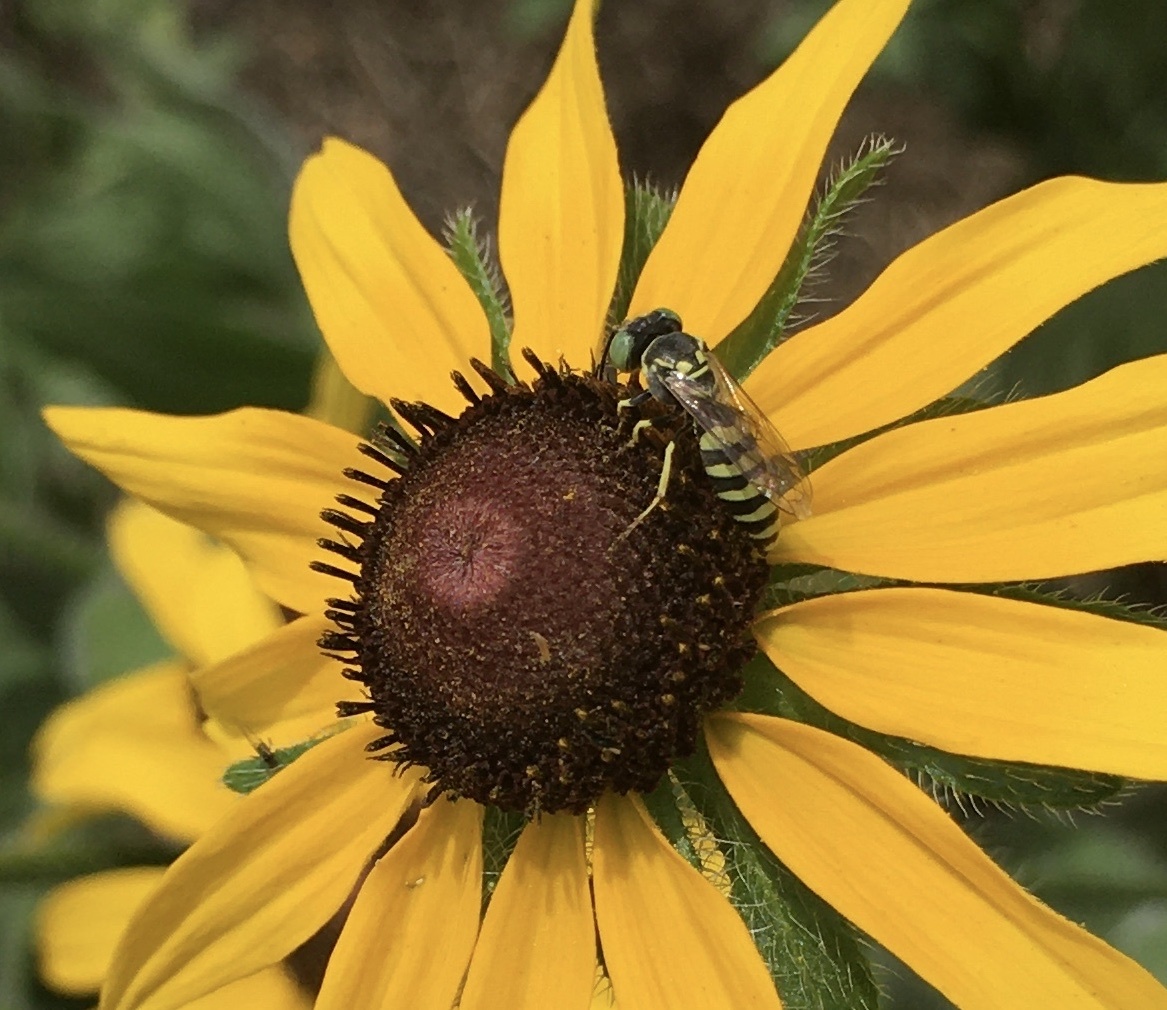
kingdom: Animalia
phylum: Arthropoda
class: Insecta
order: Hymenoptera
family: Crabronidae
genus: Microbembex
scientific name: Microbembex monodonta
